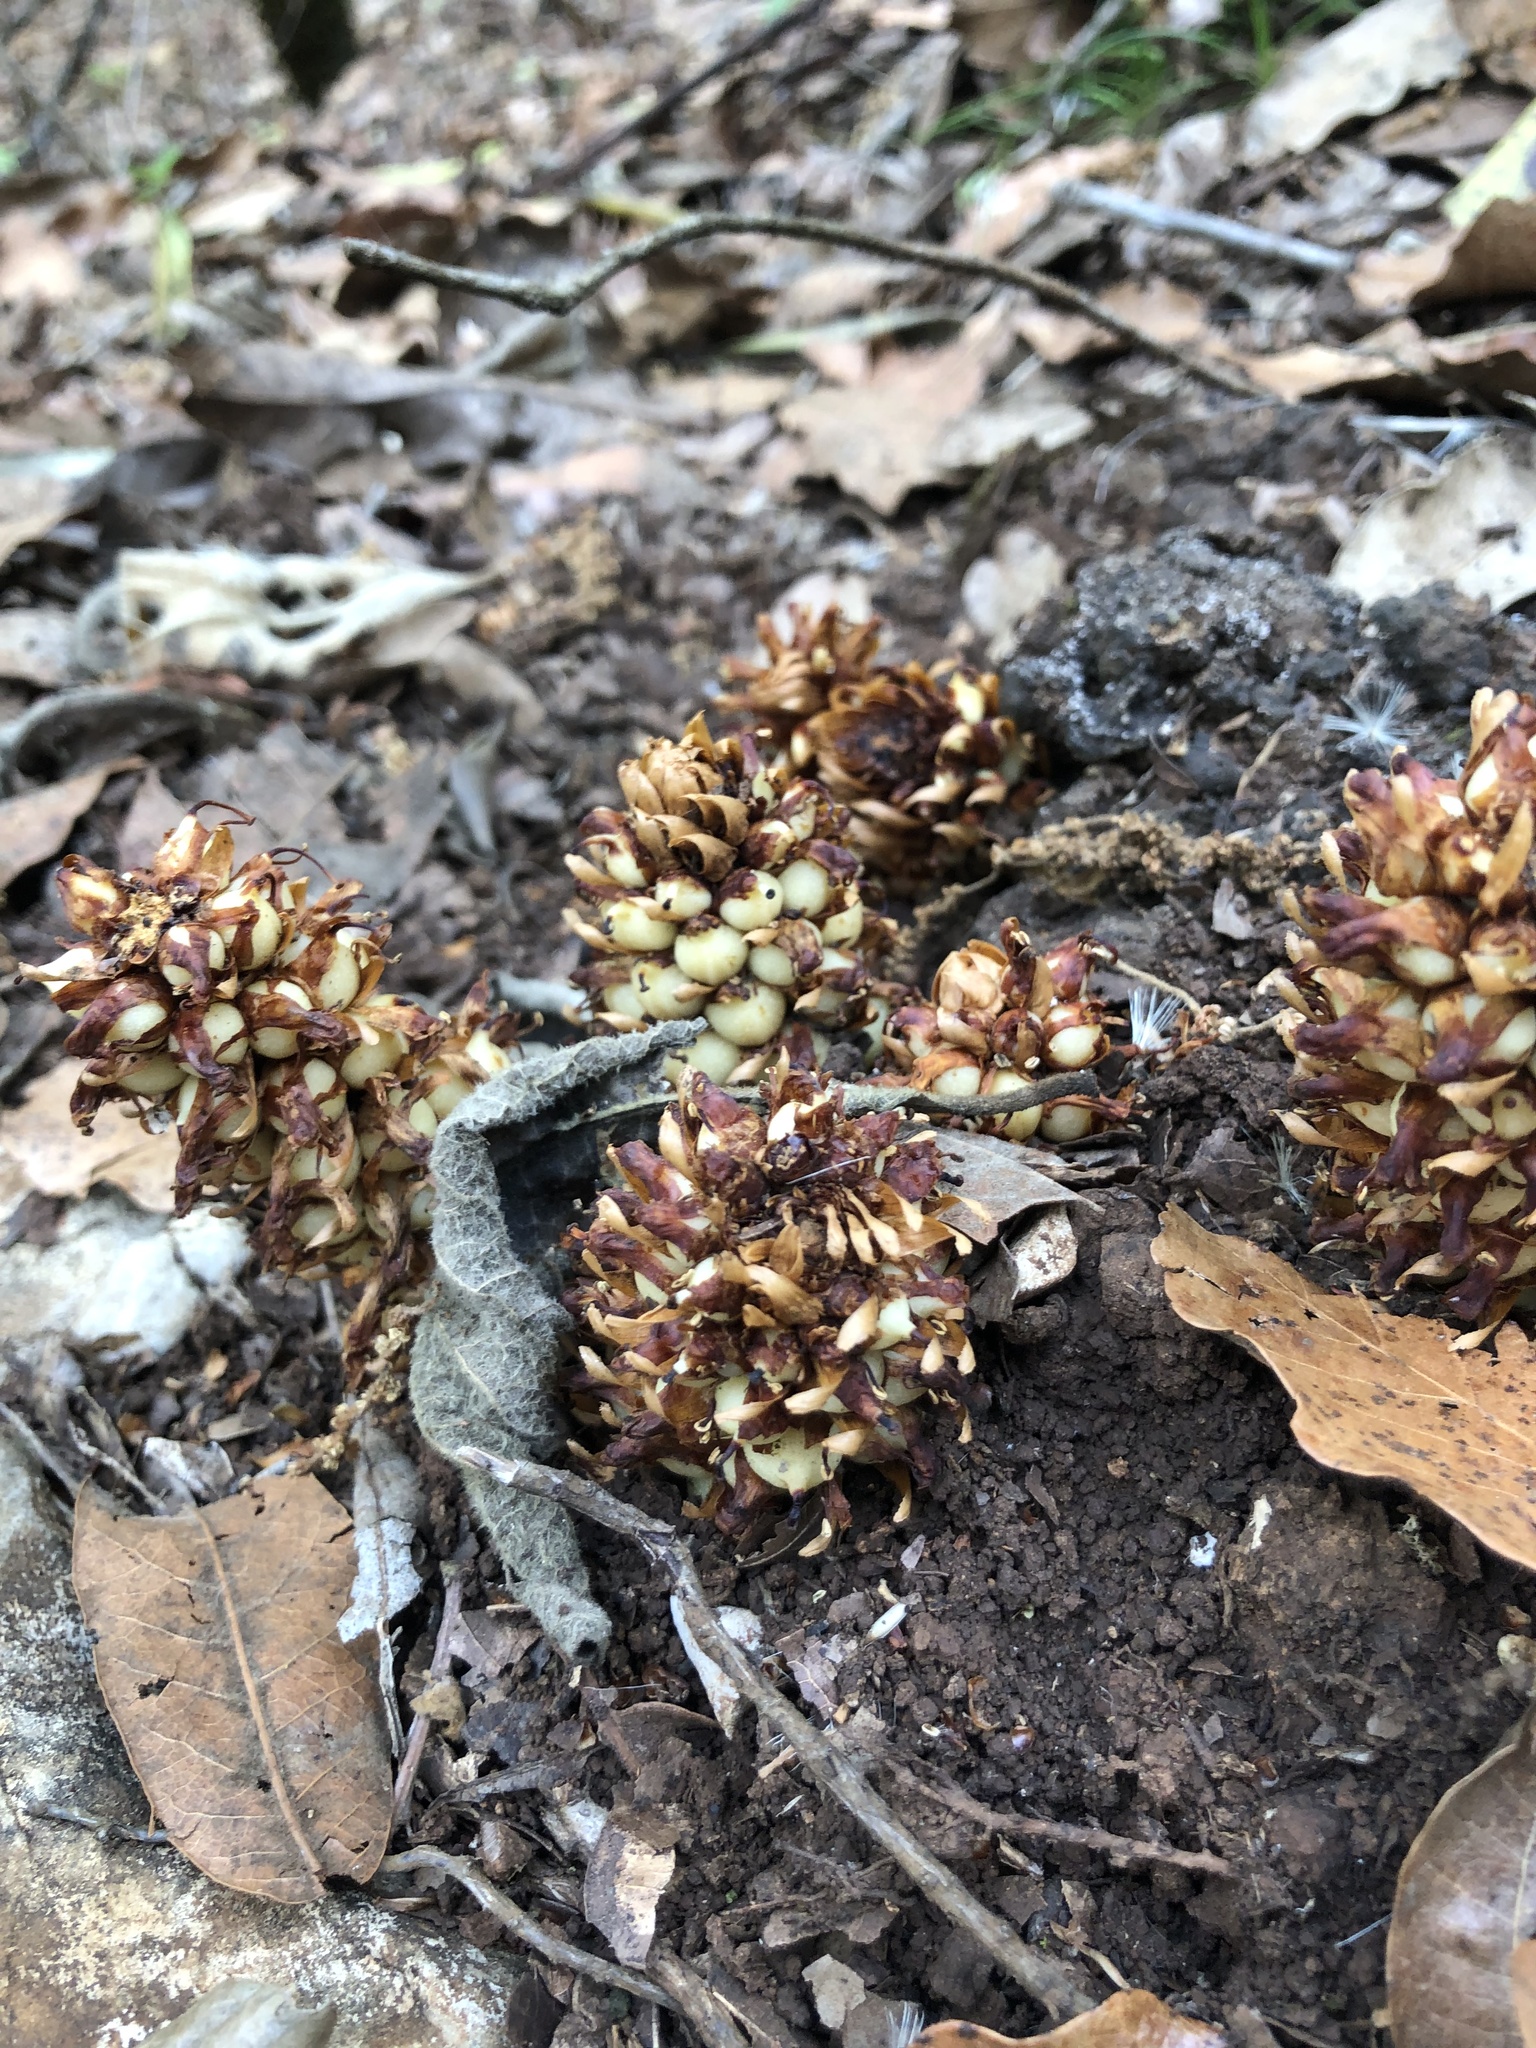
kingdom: Plantae
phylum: Tracheophyta
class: Magnoliopsida
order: Lamiales
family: Orobanchaceae
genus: Conopholis
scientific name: Conopholis alpina
